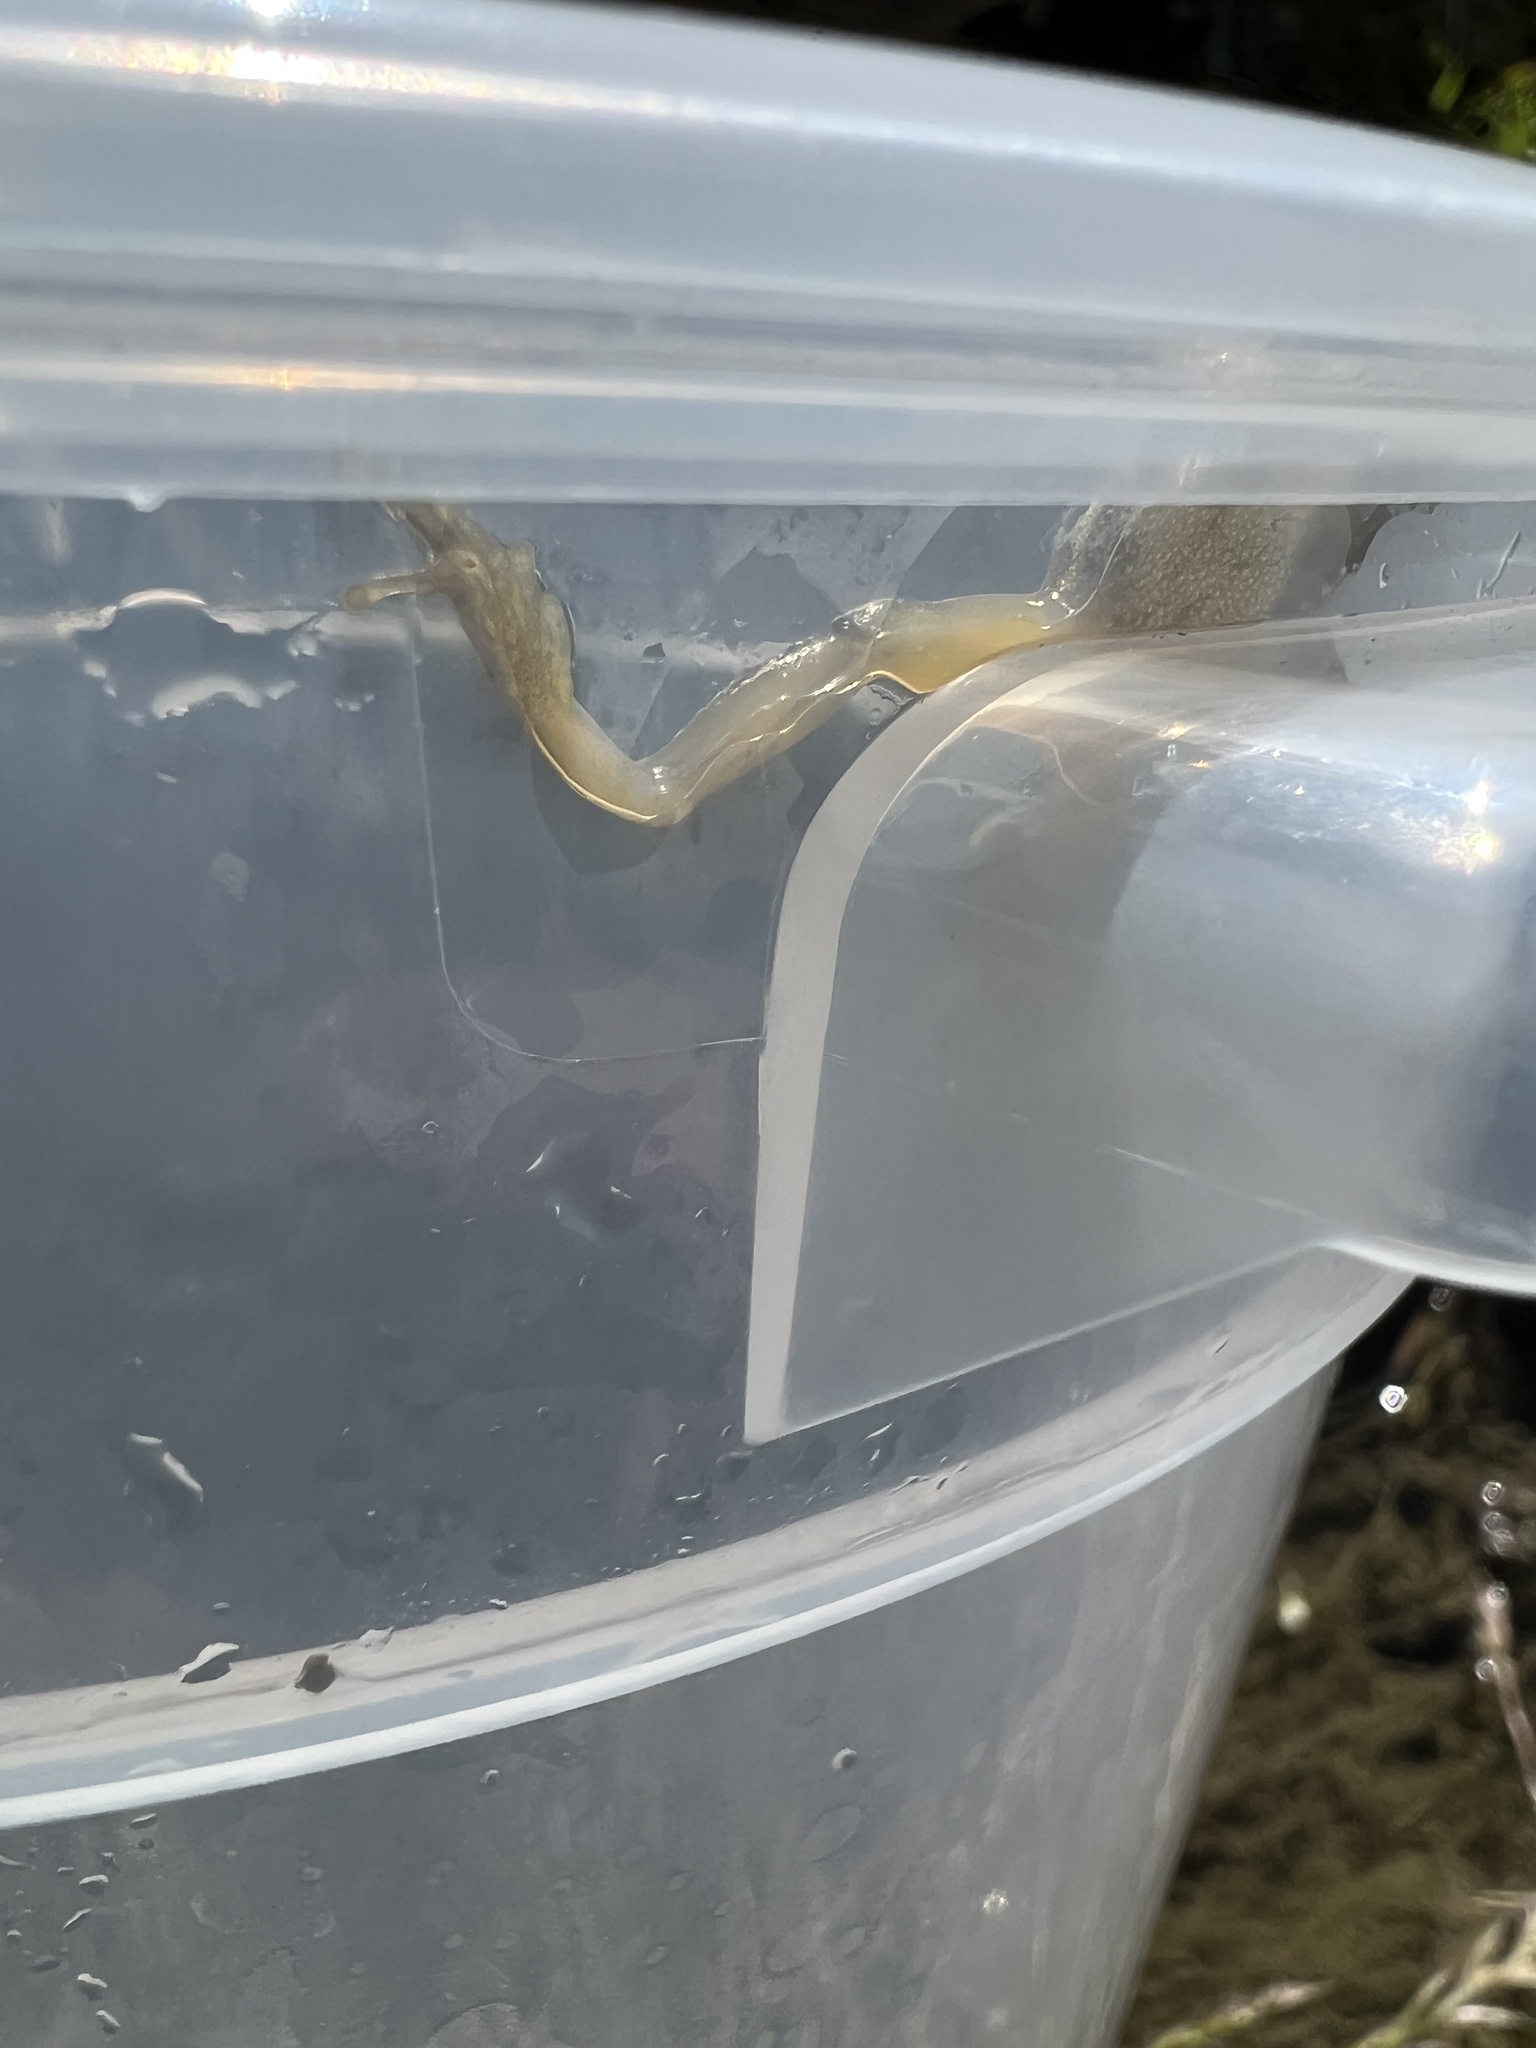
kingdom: Animalia
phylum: Chordata
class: Amphibia
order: Anura
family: Hylidae
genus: Pseudacris
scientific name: Pseudacris regilla
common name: Pacific chorus frog
